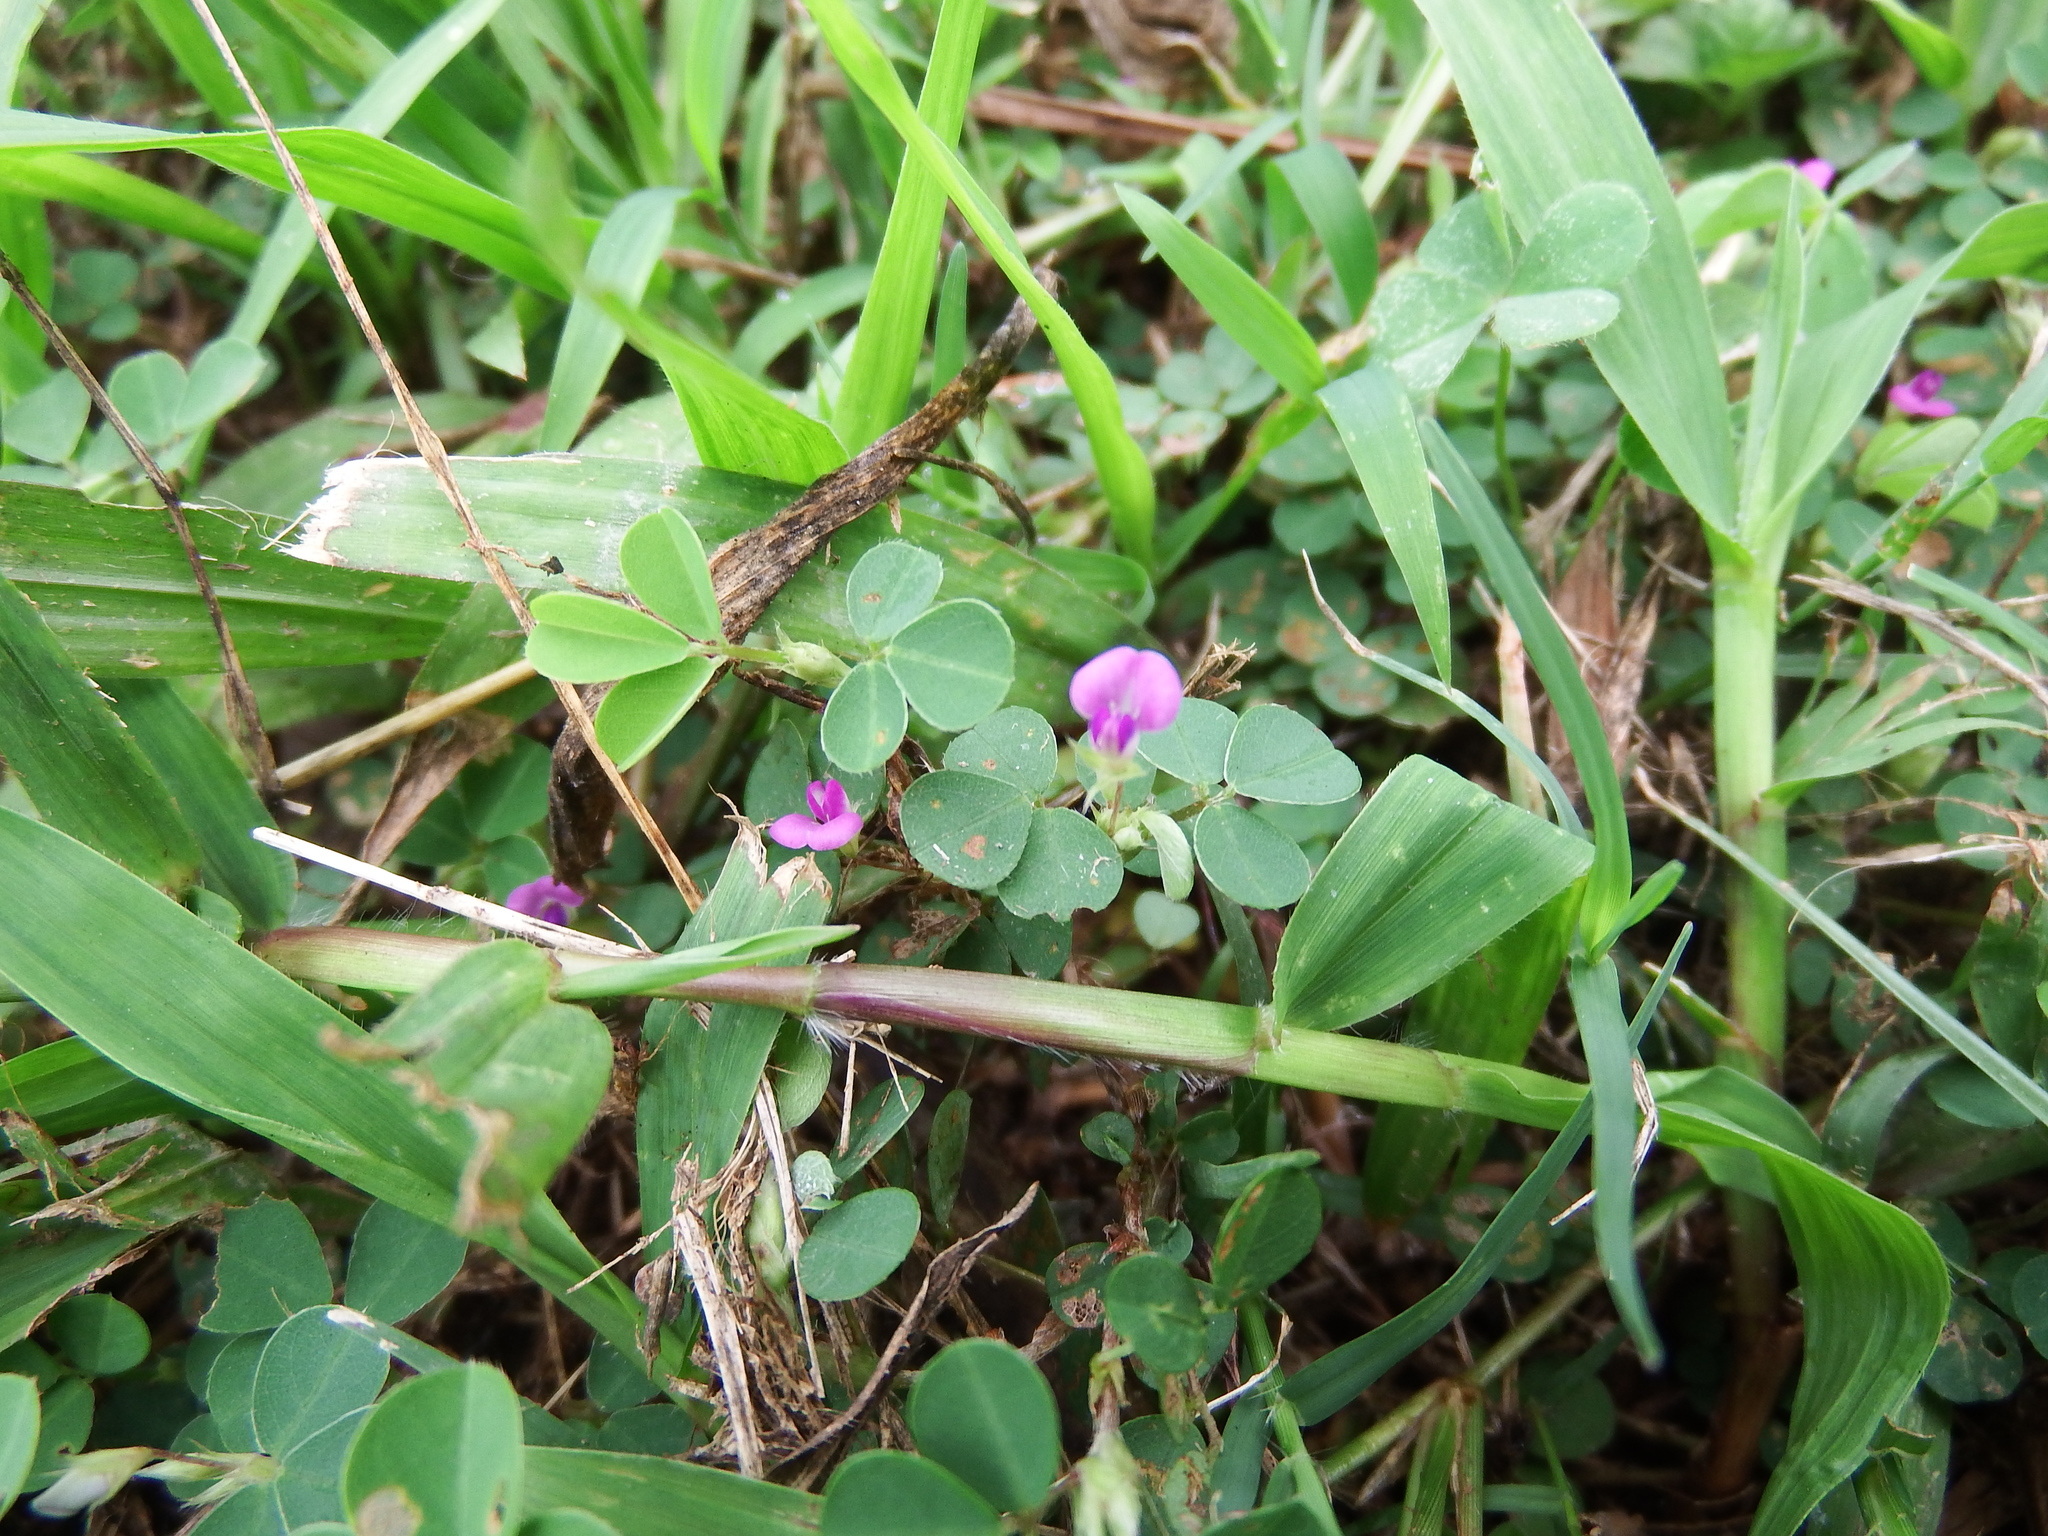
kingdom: Plantae
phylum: Tracheophyta
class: Magnoliopsida
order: Fabales
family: Fabaceae
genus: Grona
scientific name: Grona triflora
